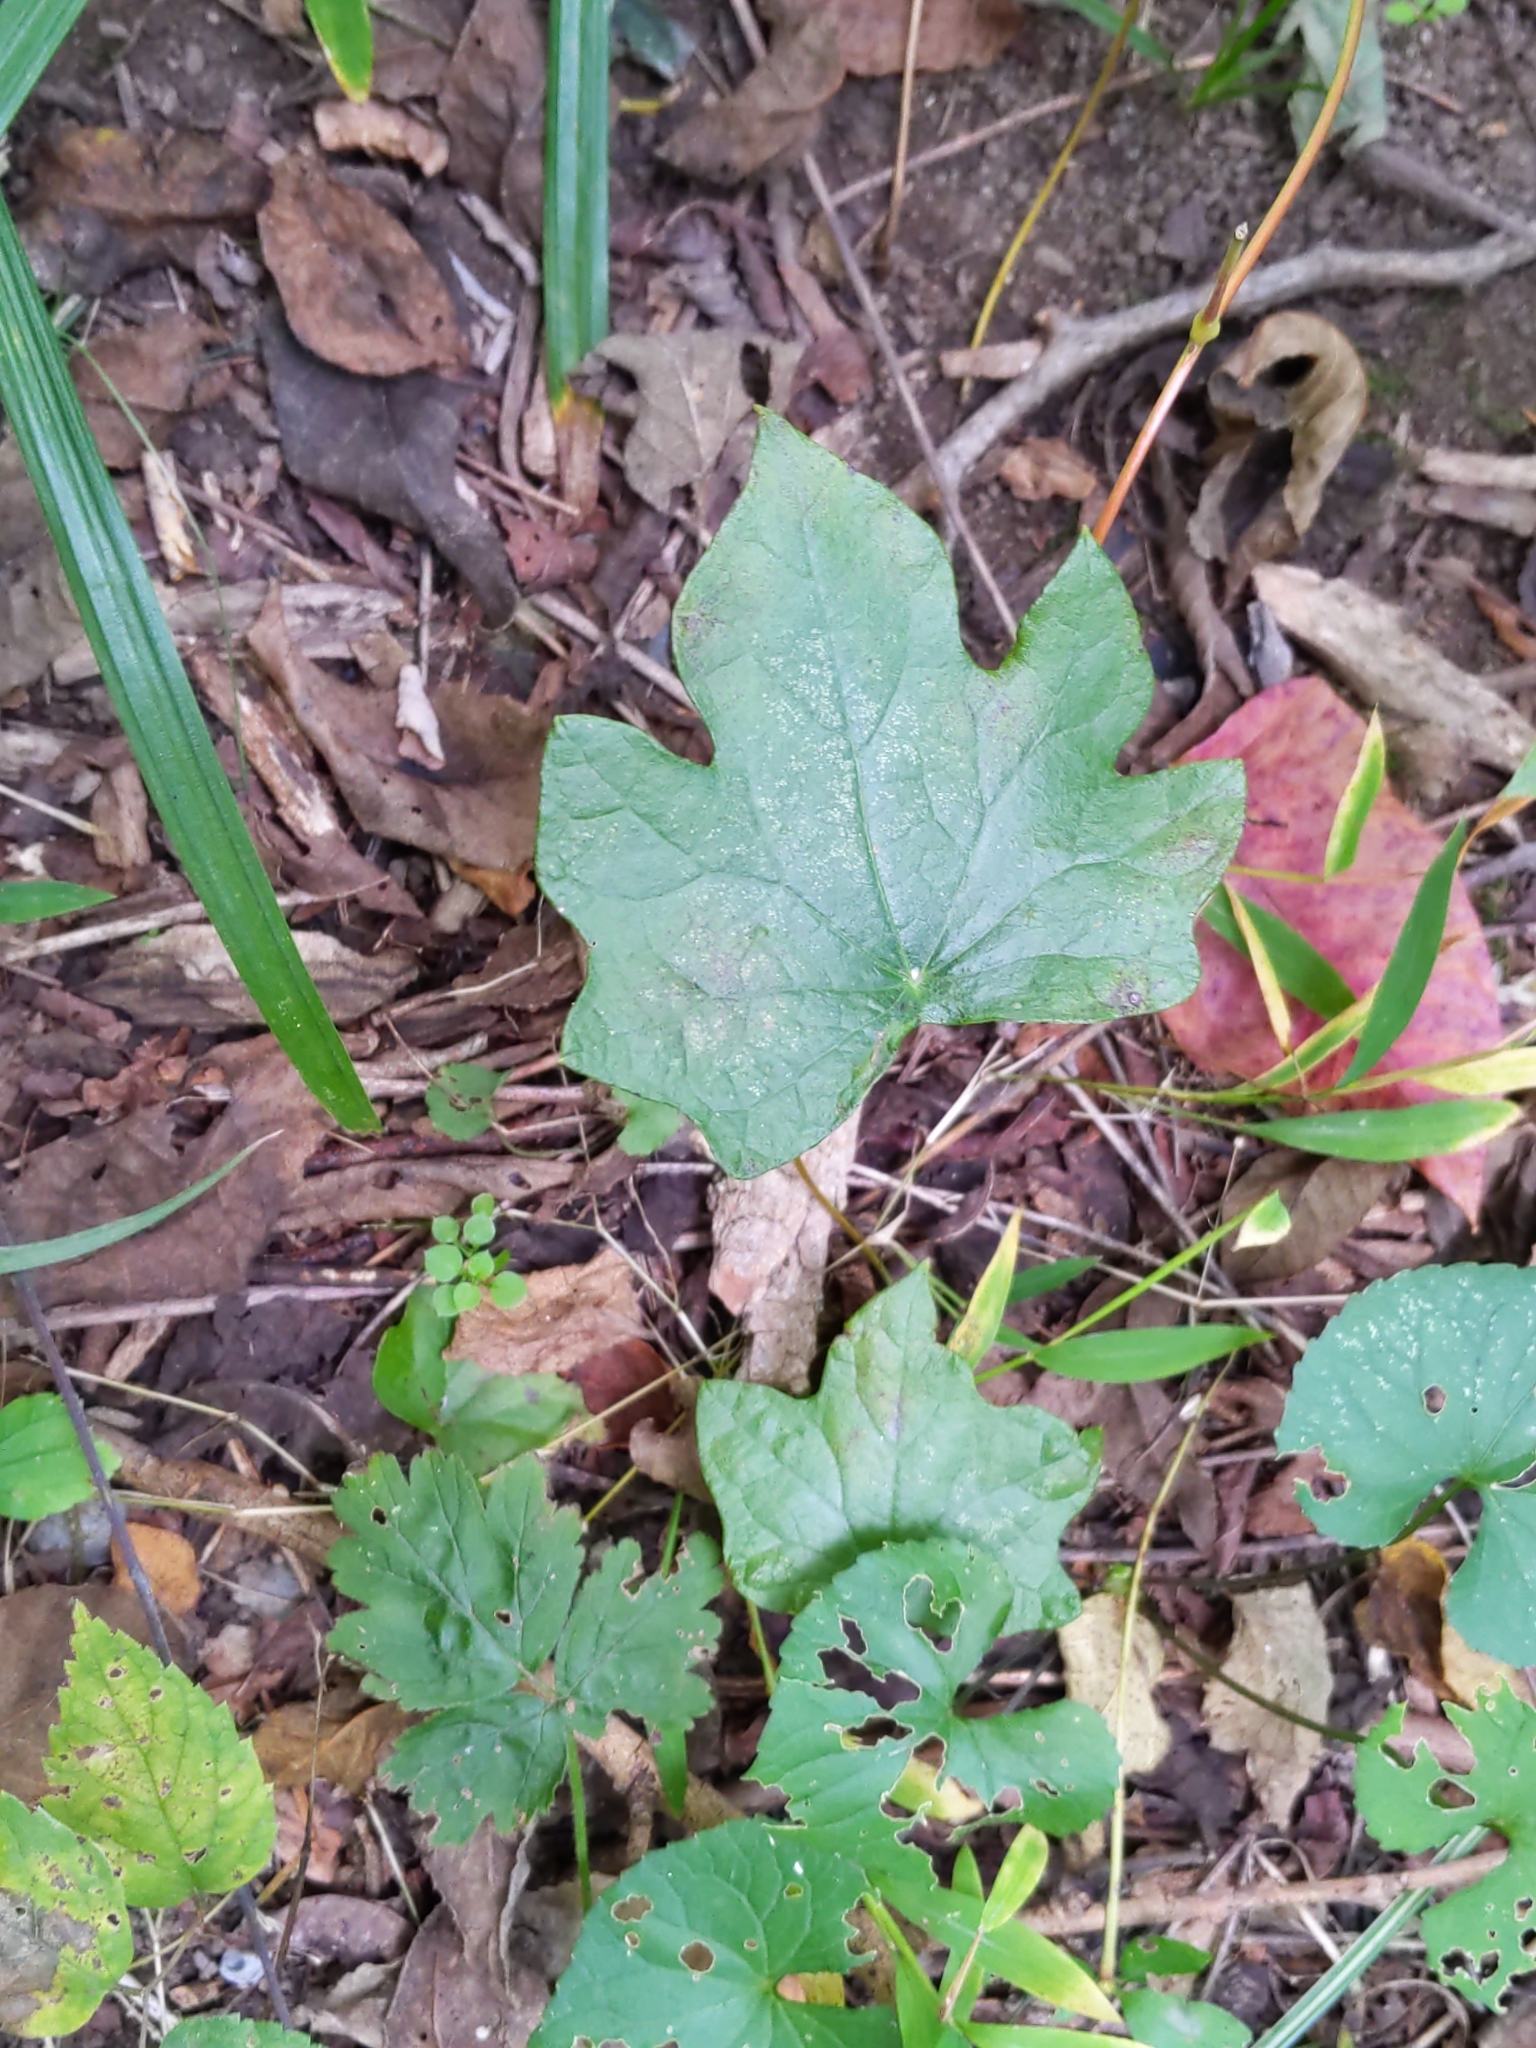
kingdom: Plantae
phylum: Tracheophyta
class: Magnoliopsida
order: Ranunculales
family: Menispermaceae
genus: Menispermum
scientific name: Menispermum canadense
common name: Moonseed
